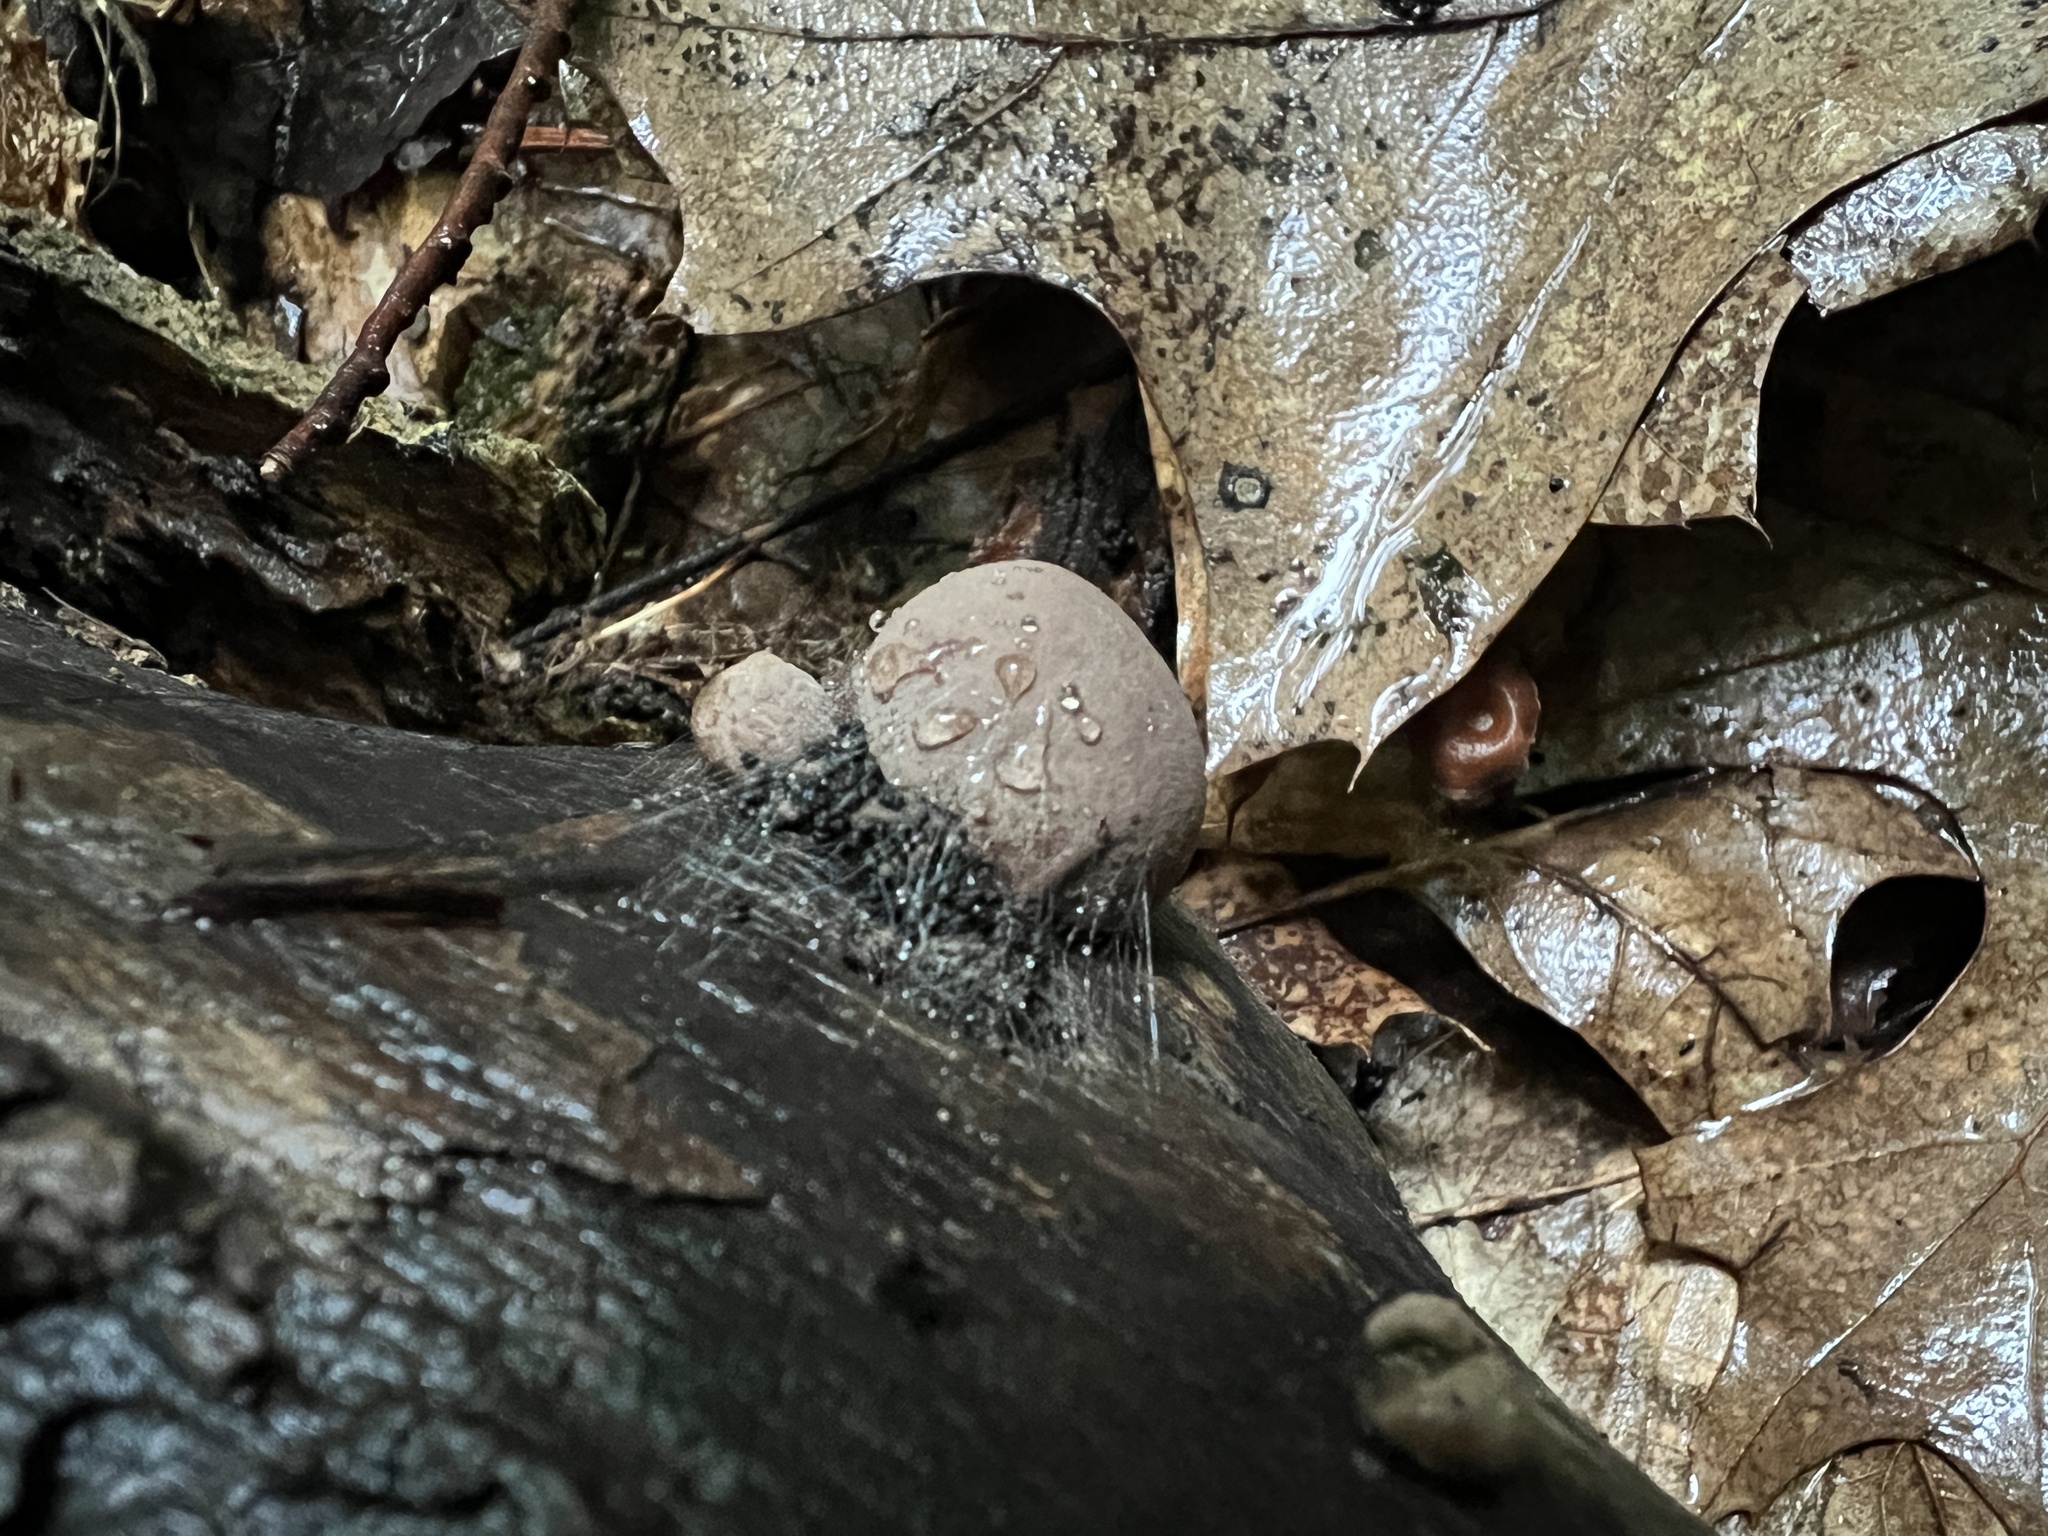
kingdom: Fungi
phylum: Ascomycota
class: Sordariomycetes
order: Xylariales
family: Hypoxylaceae
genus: Daldinia
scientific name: Daldinia childiae
